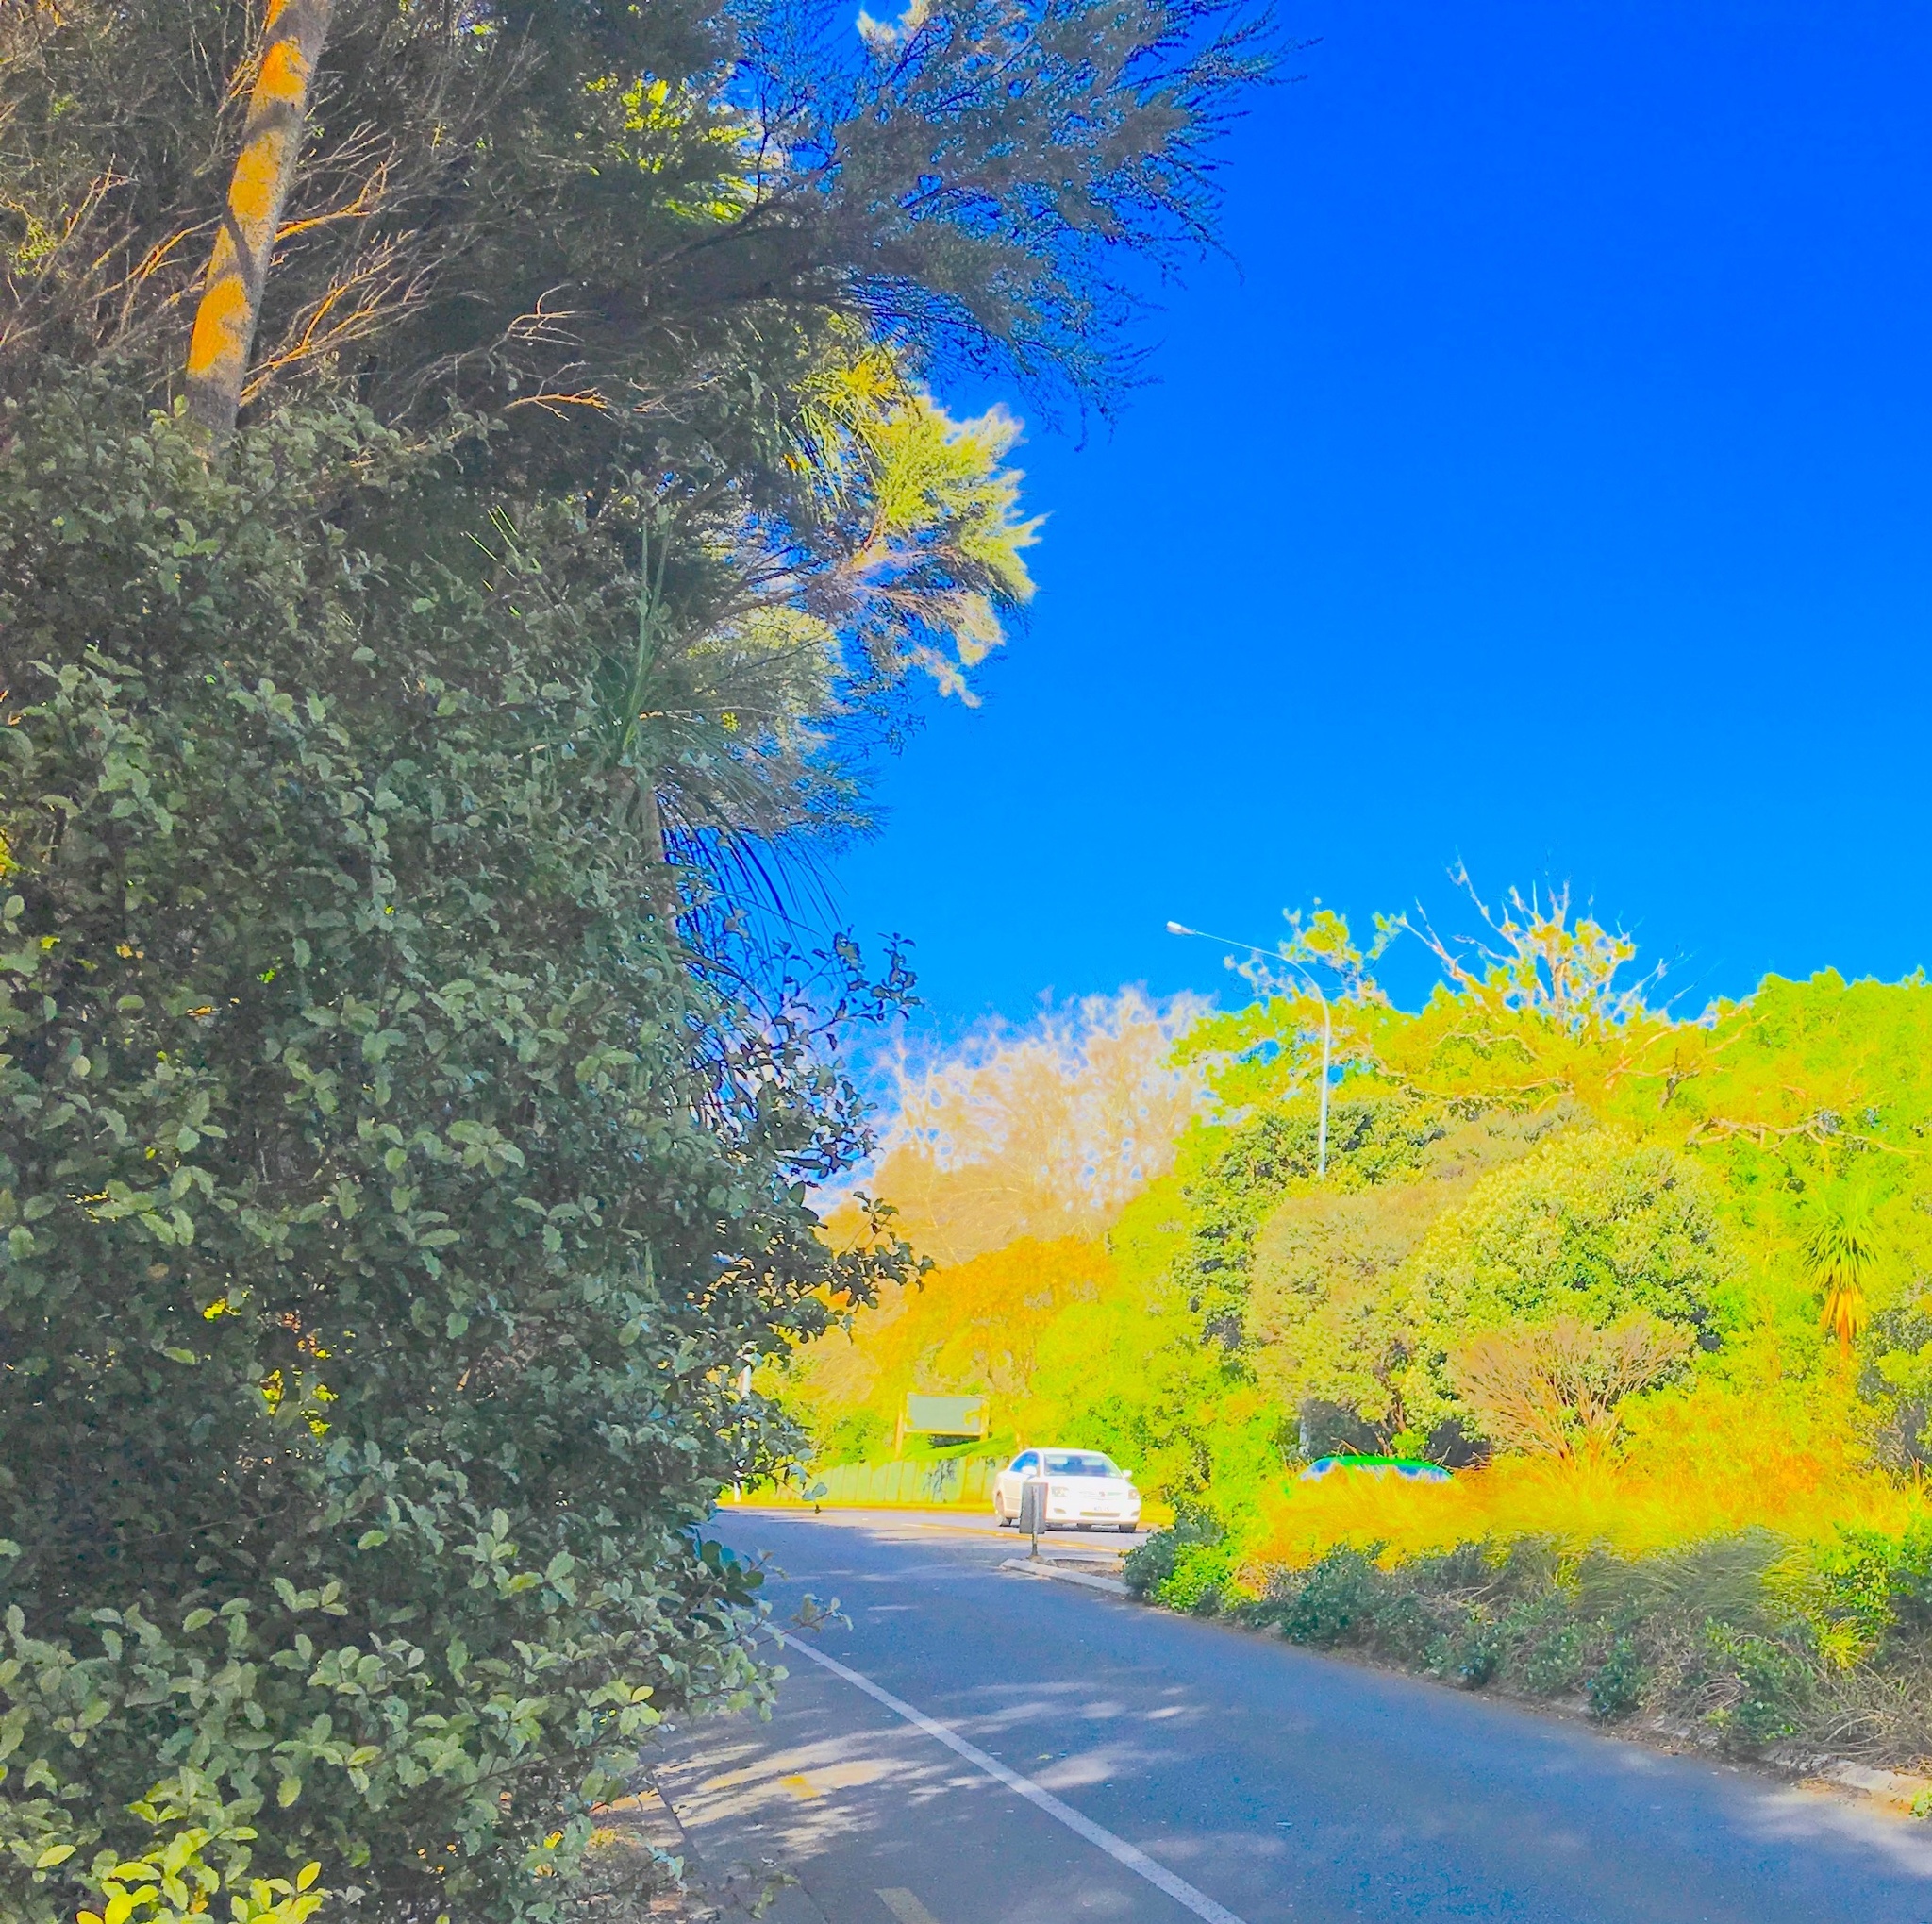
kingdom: Plantae
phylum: Tracheophyta
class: Magnoliopsida
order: Ericales
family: Primulaceae
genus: Myrsine
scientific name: Myrsine australis
